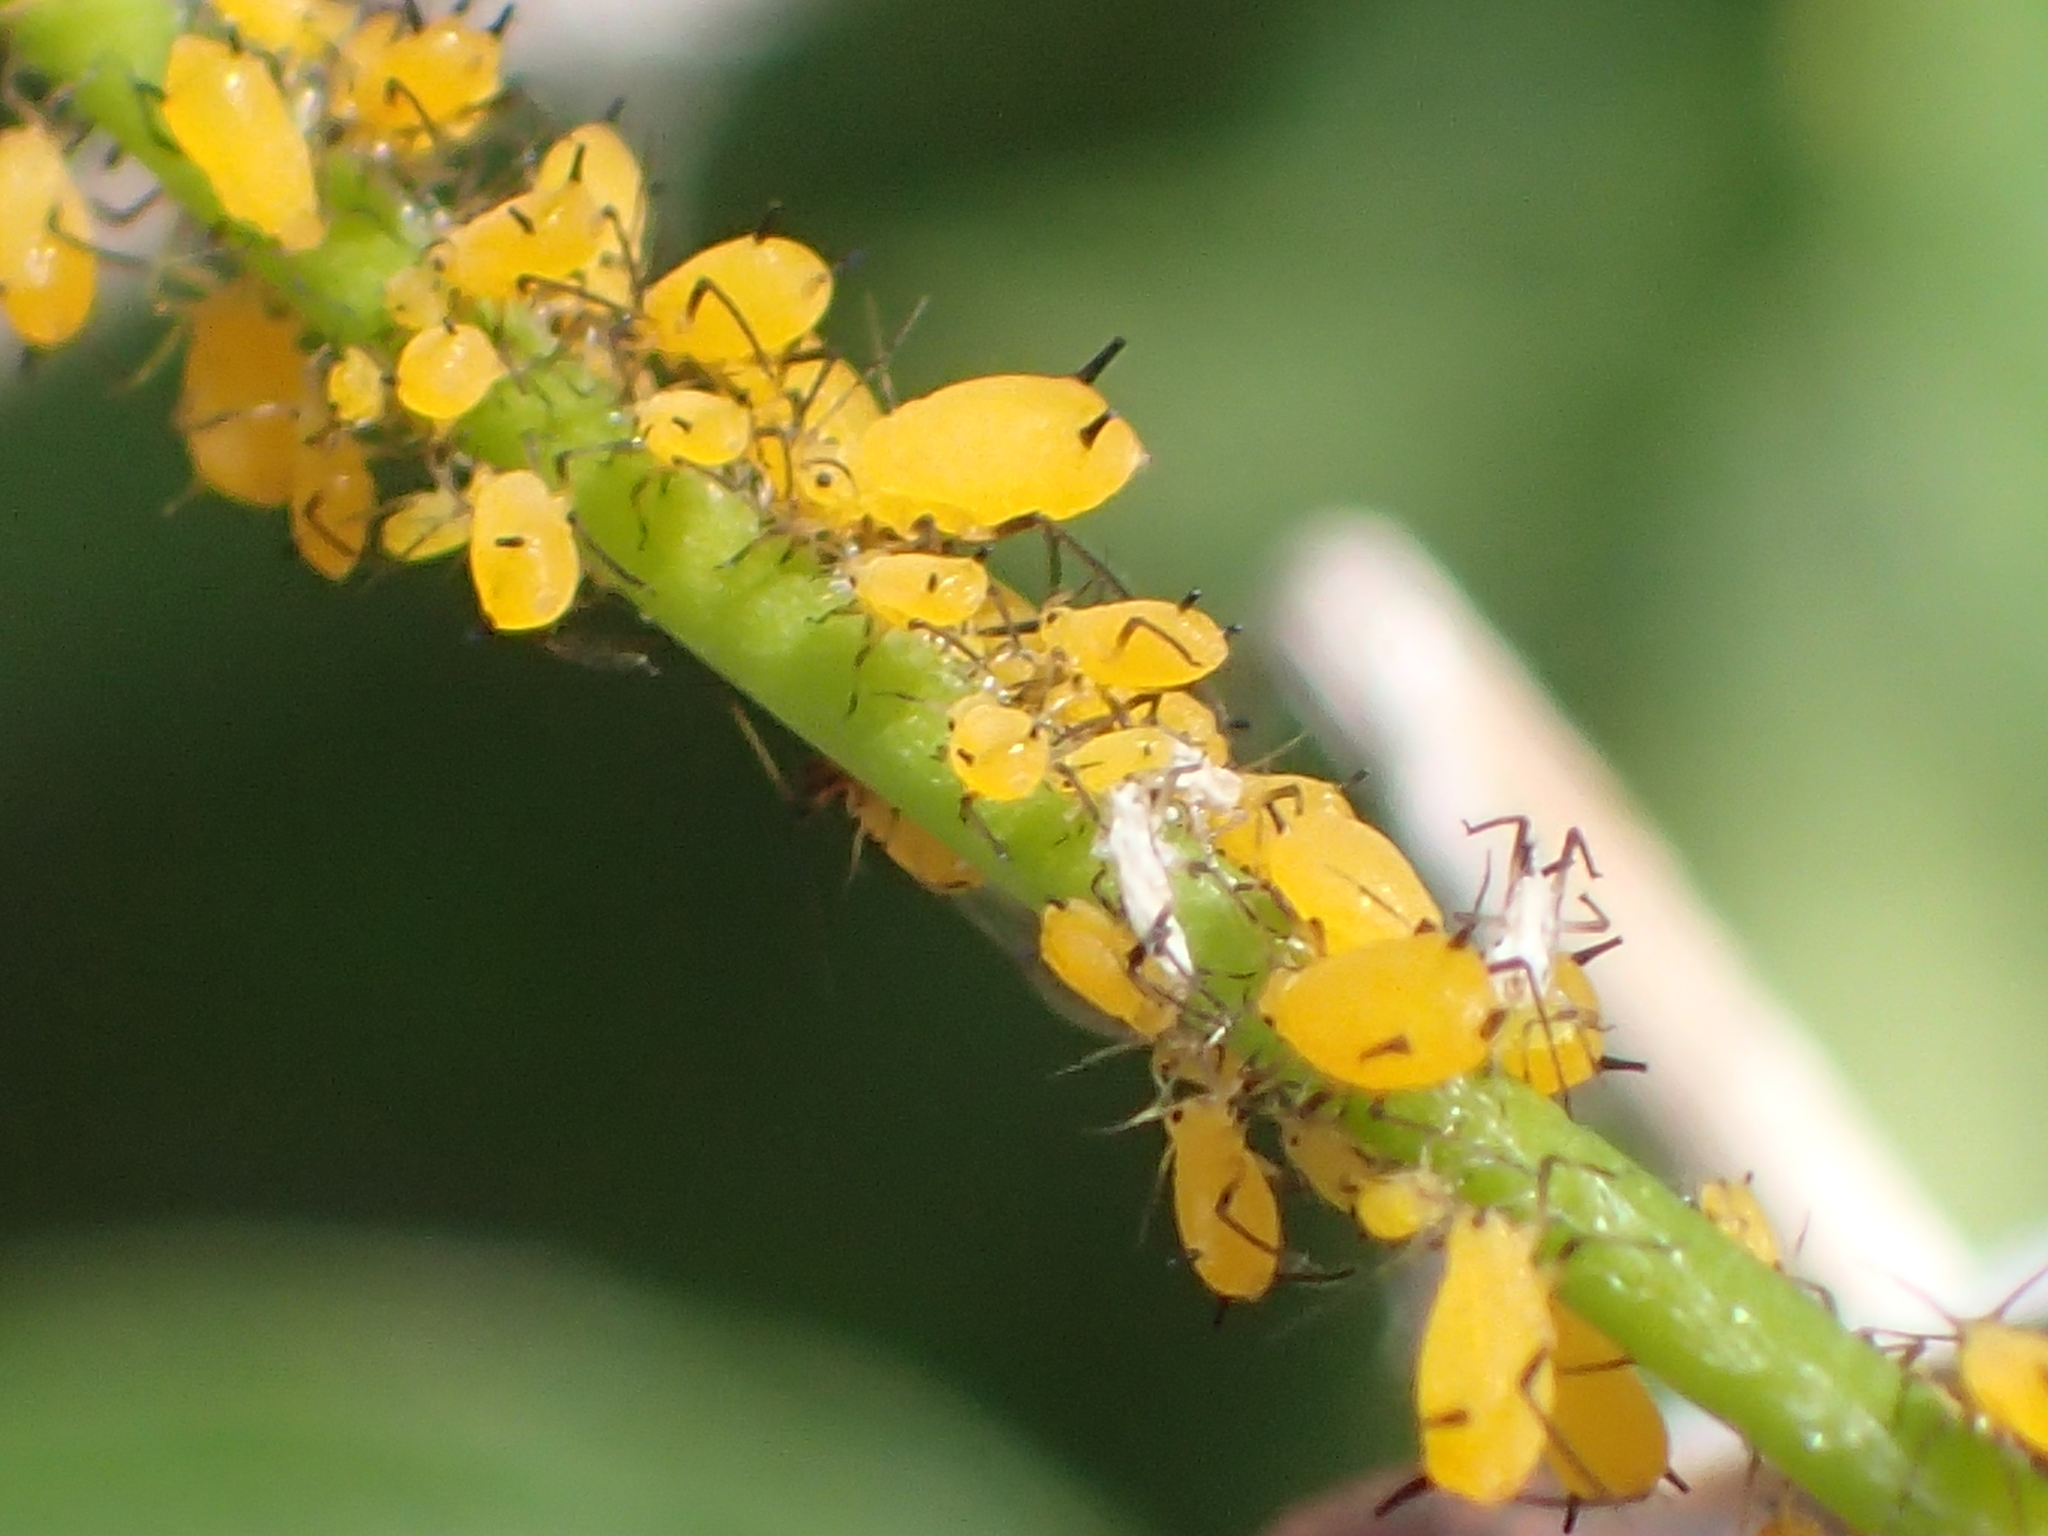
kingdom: Animalia
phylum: Arthropoda
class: Insecta
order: Hemiptera
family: Aphididae
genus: Aphis
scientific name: Aphis nerii
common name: Oleander aphid
